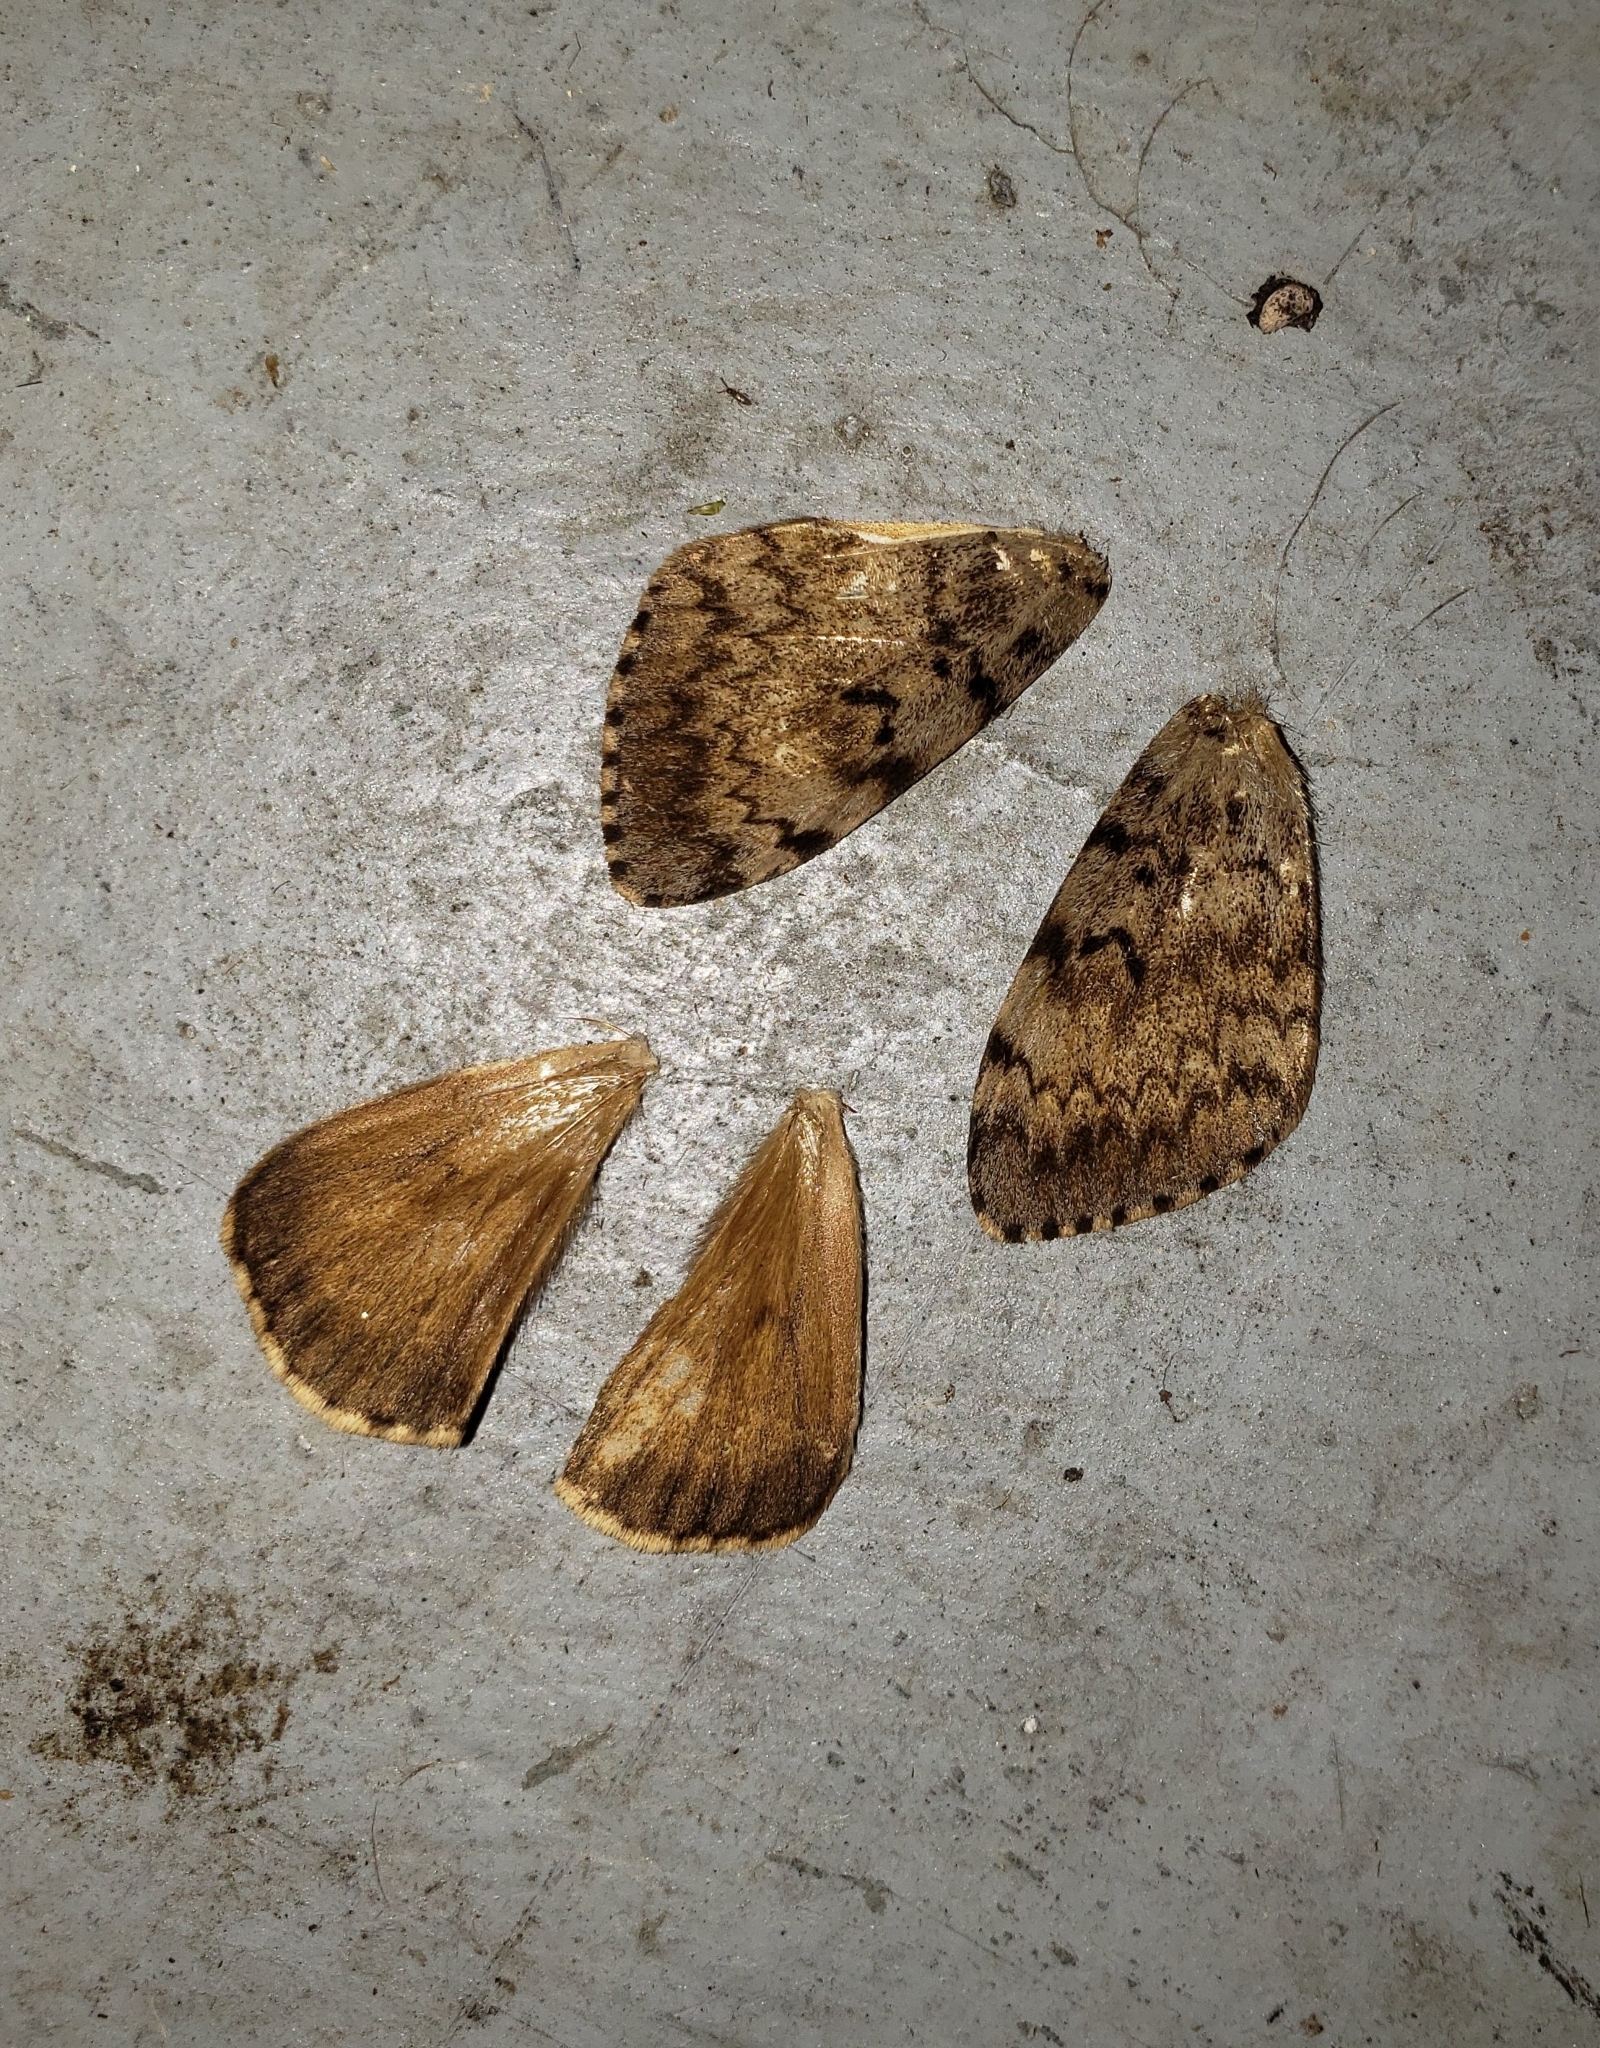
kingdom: Animalia
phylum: Arthropoda
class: Insecta
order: Lepidoptera
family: Erebidae
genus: Lymantria
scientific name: Lymantria dispar
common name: Gypsy moth
